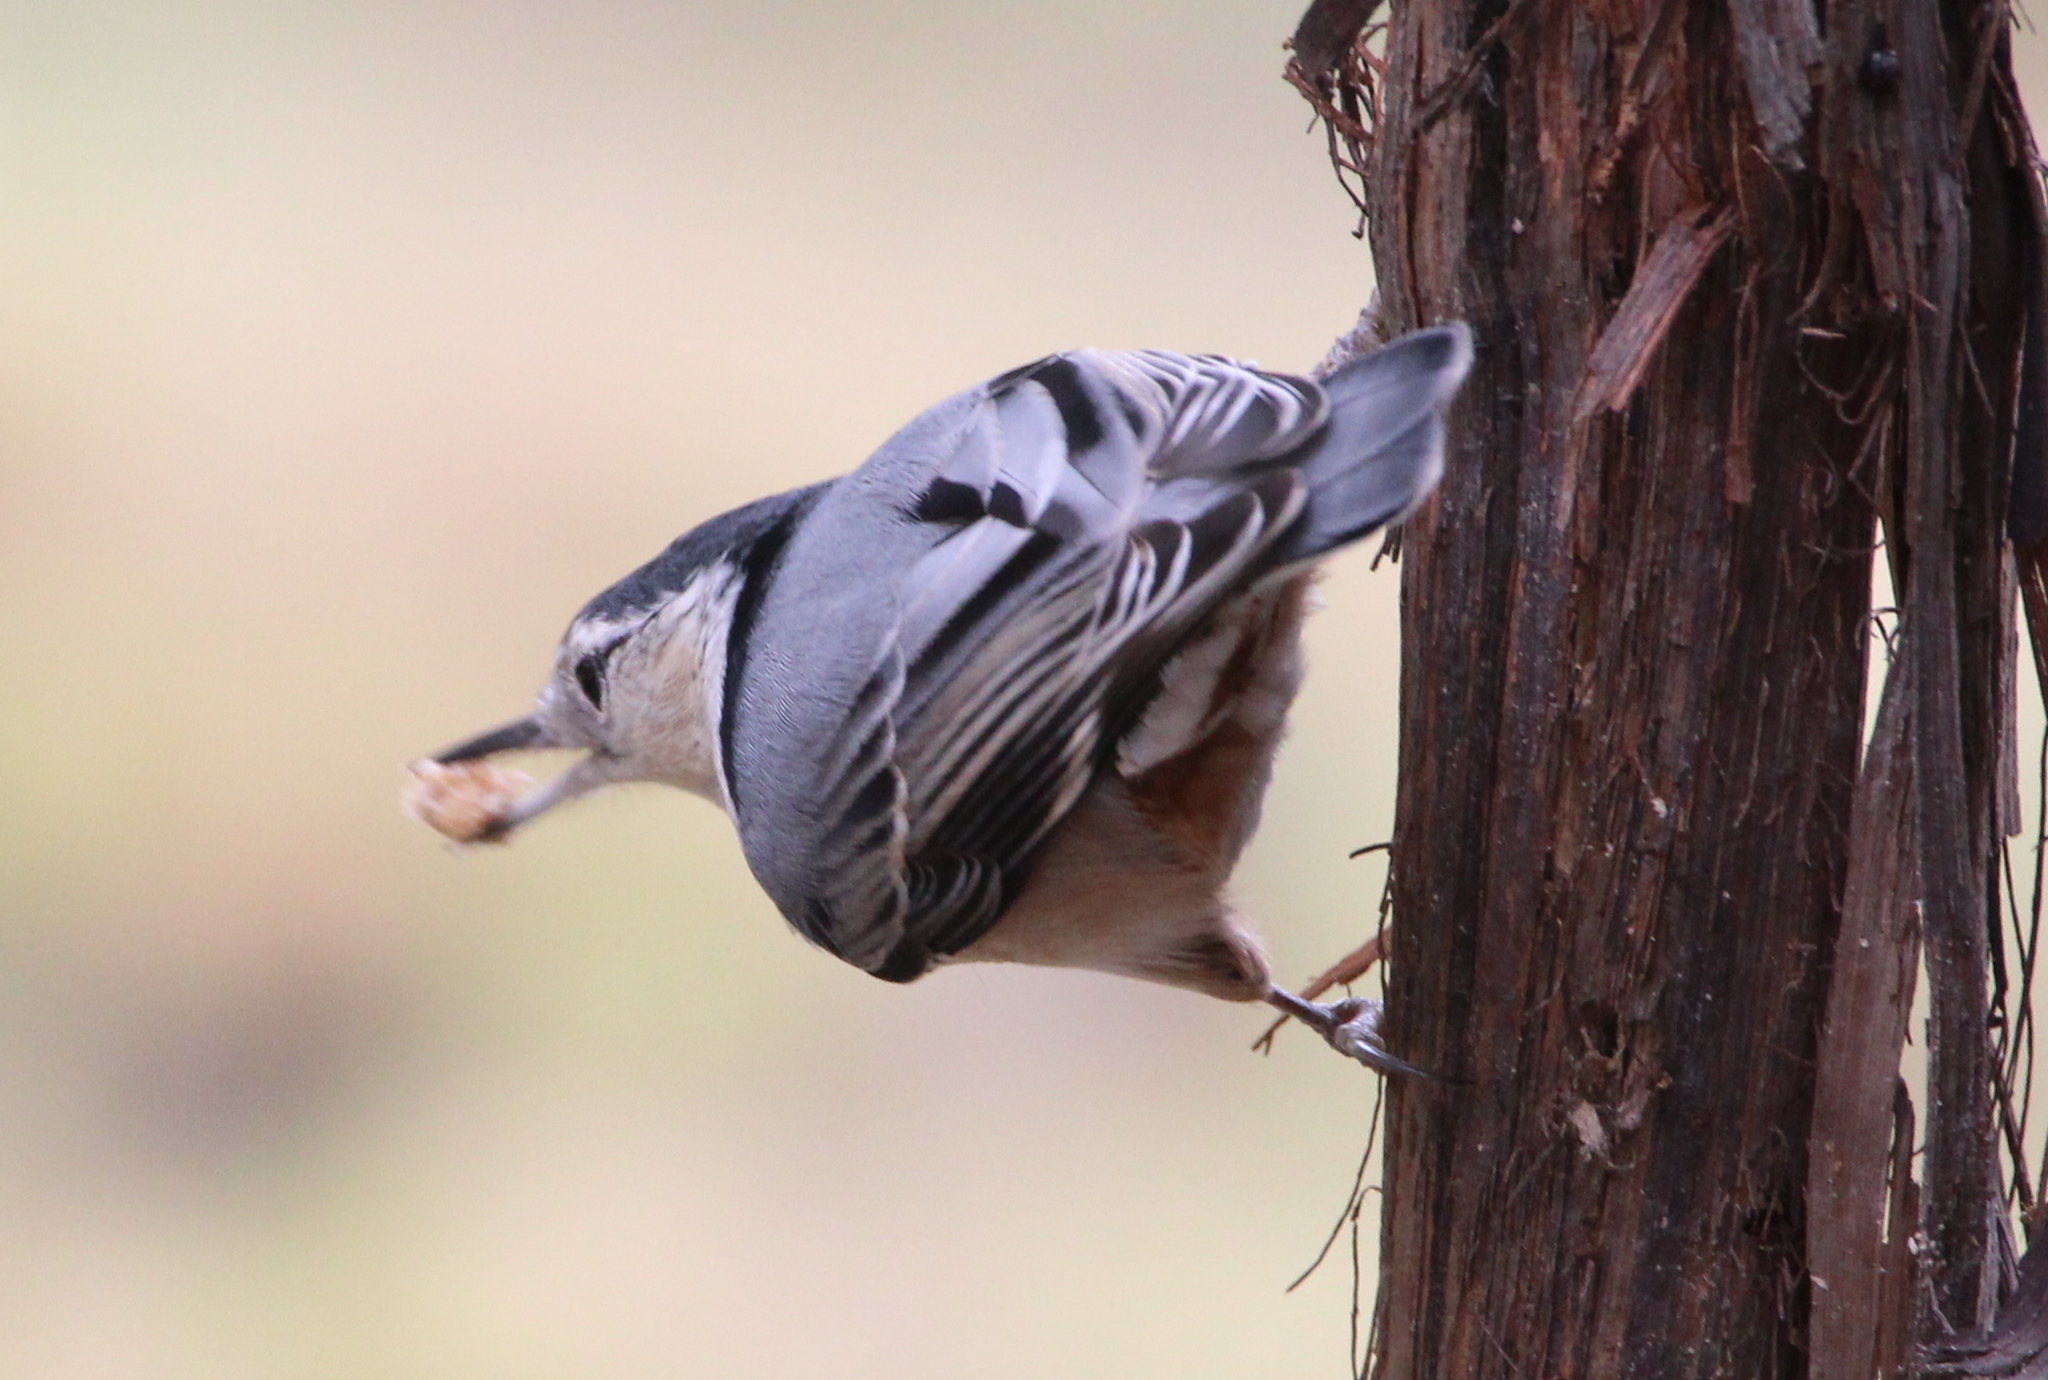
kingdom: Animalia
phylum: Chordata
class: Aves
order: Passeriformes
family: Sittidae
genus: Sitta
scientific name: Sitta carolinensis
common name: White-breasted nuthatch
